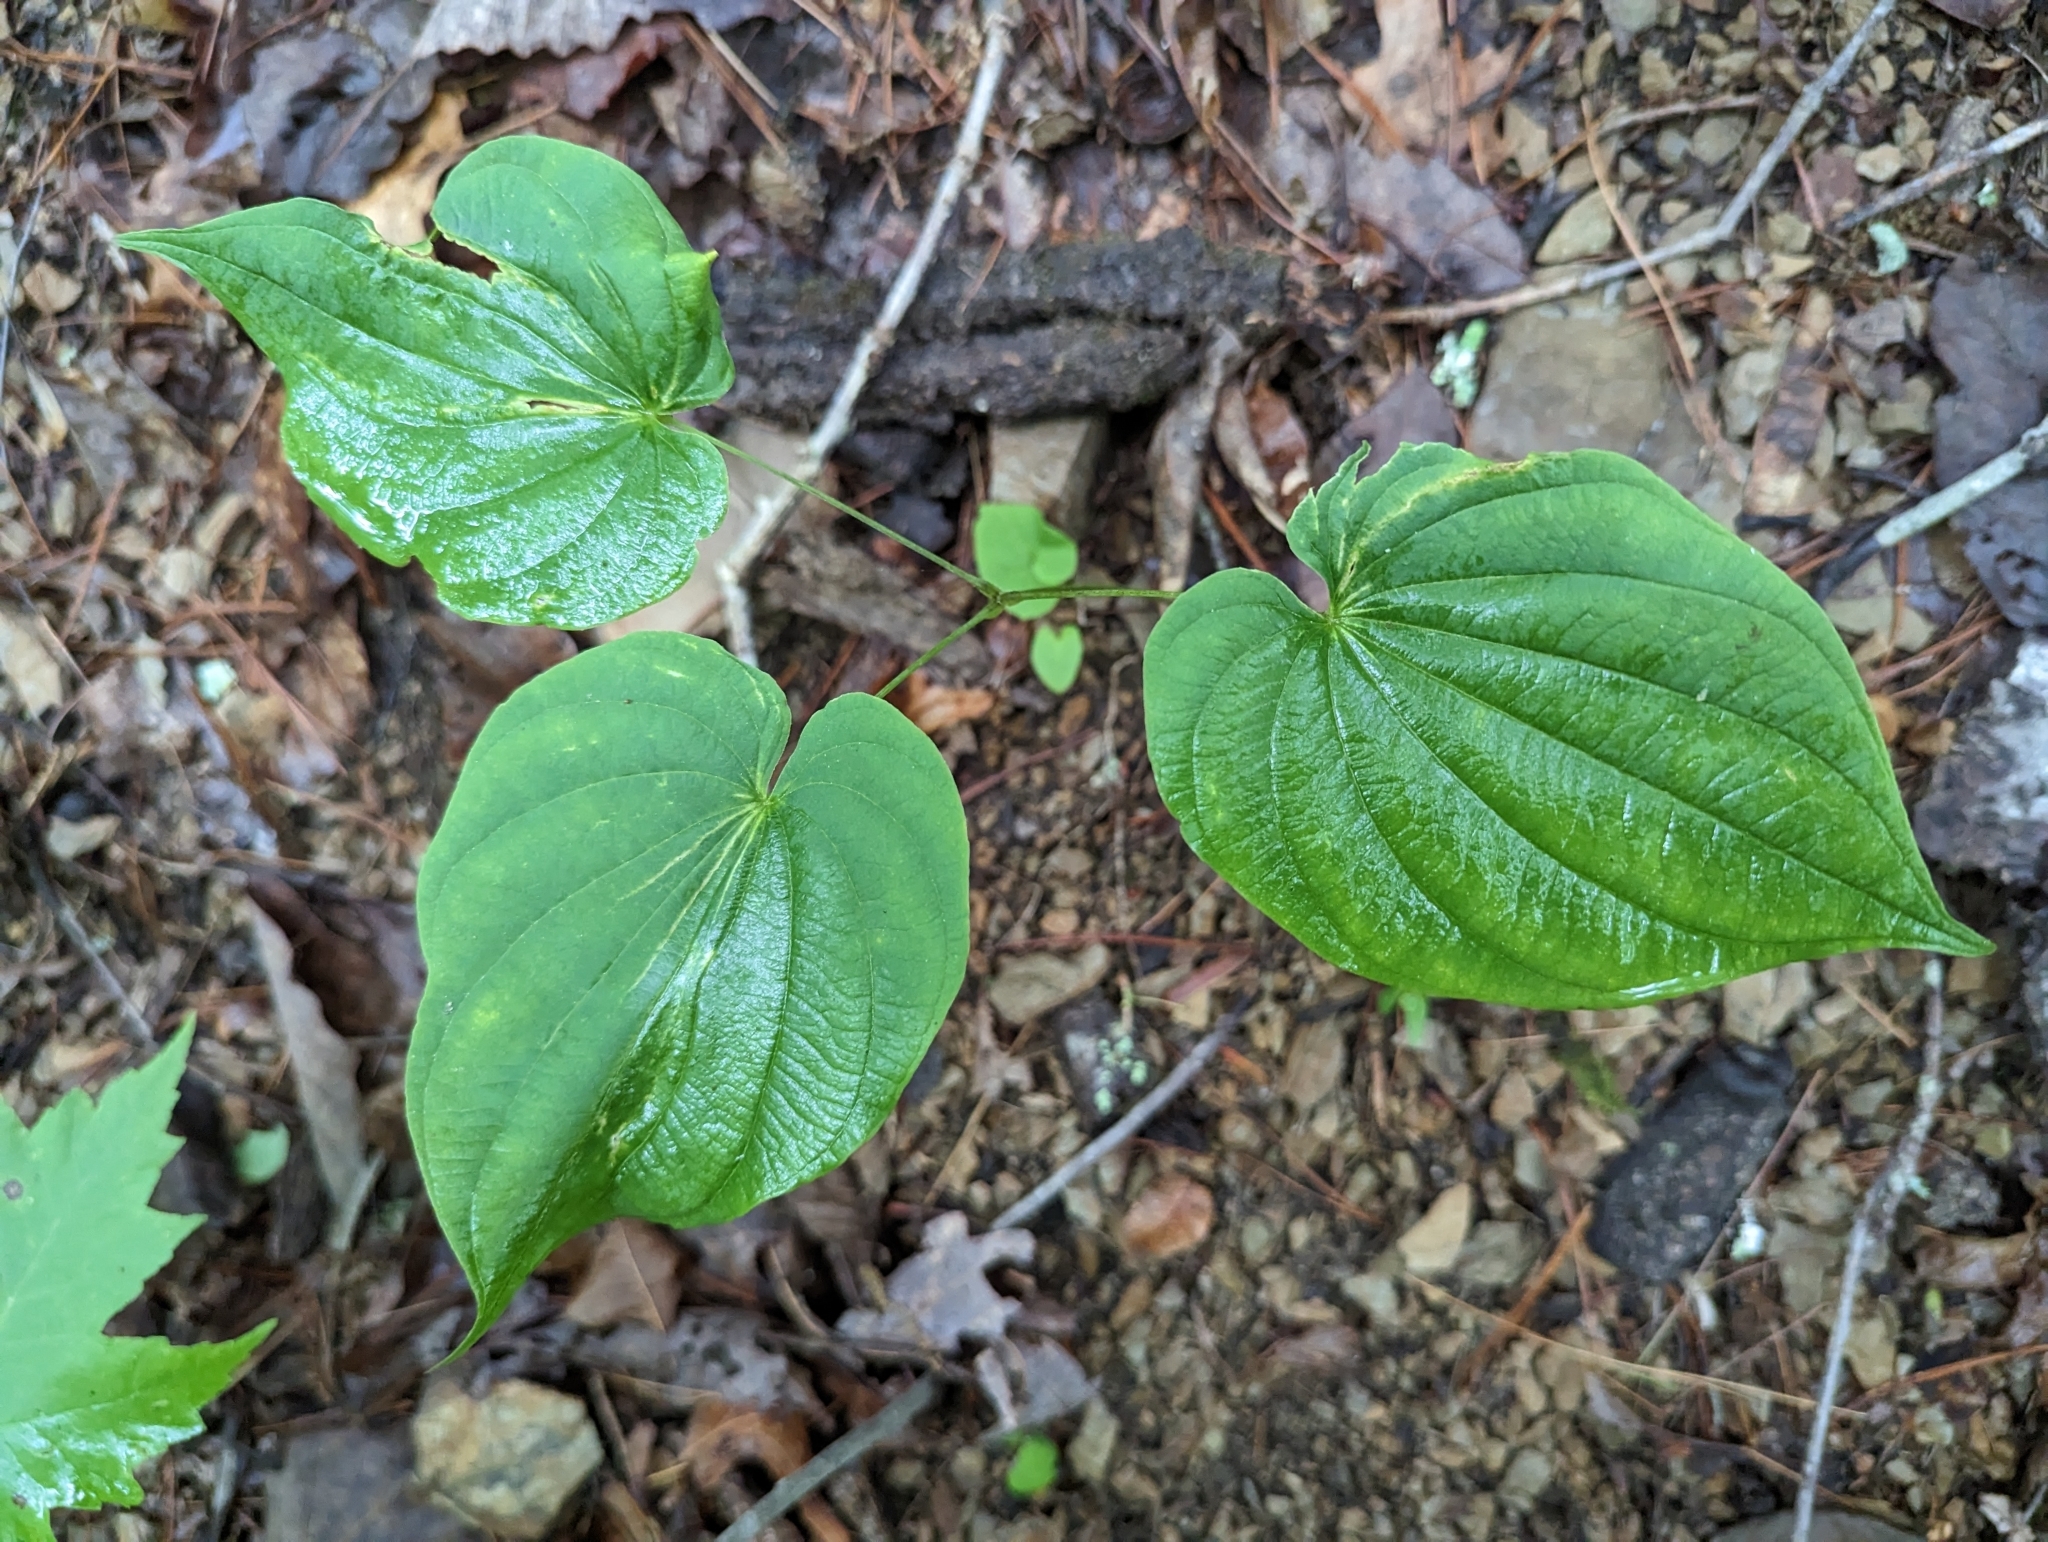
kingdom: Plantae
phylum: Tracheophyta
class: Liliopsida
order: Dioscoreales
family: Dioscoreaceae
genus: Dioscorea
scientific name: Dioscorea villosa
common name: Wild yam
